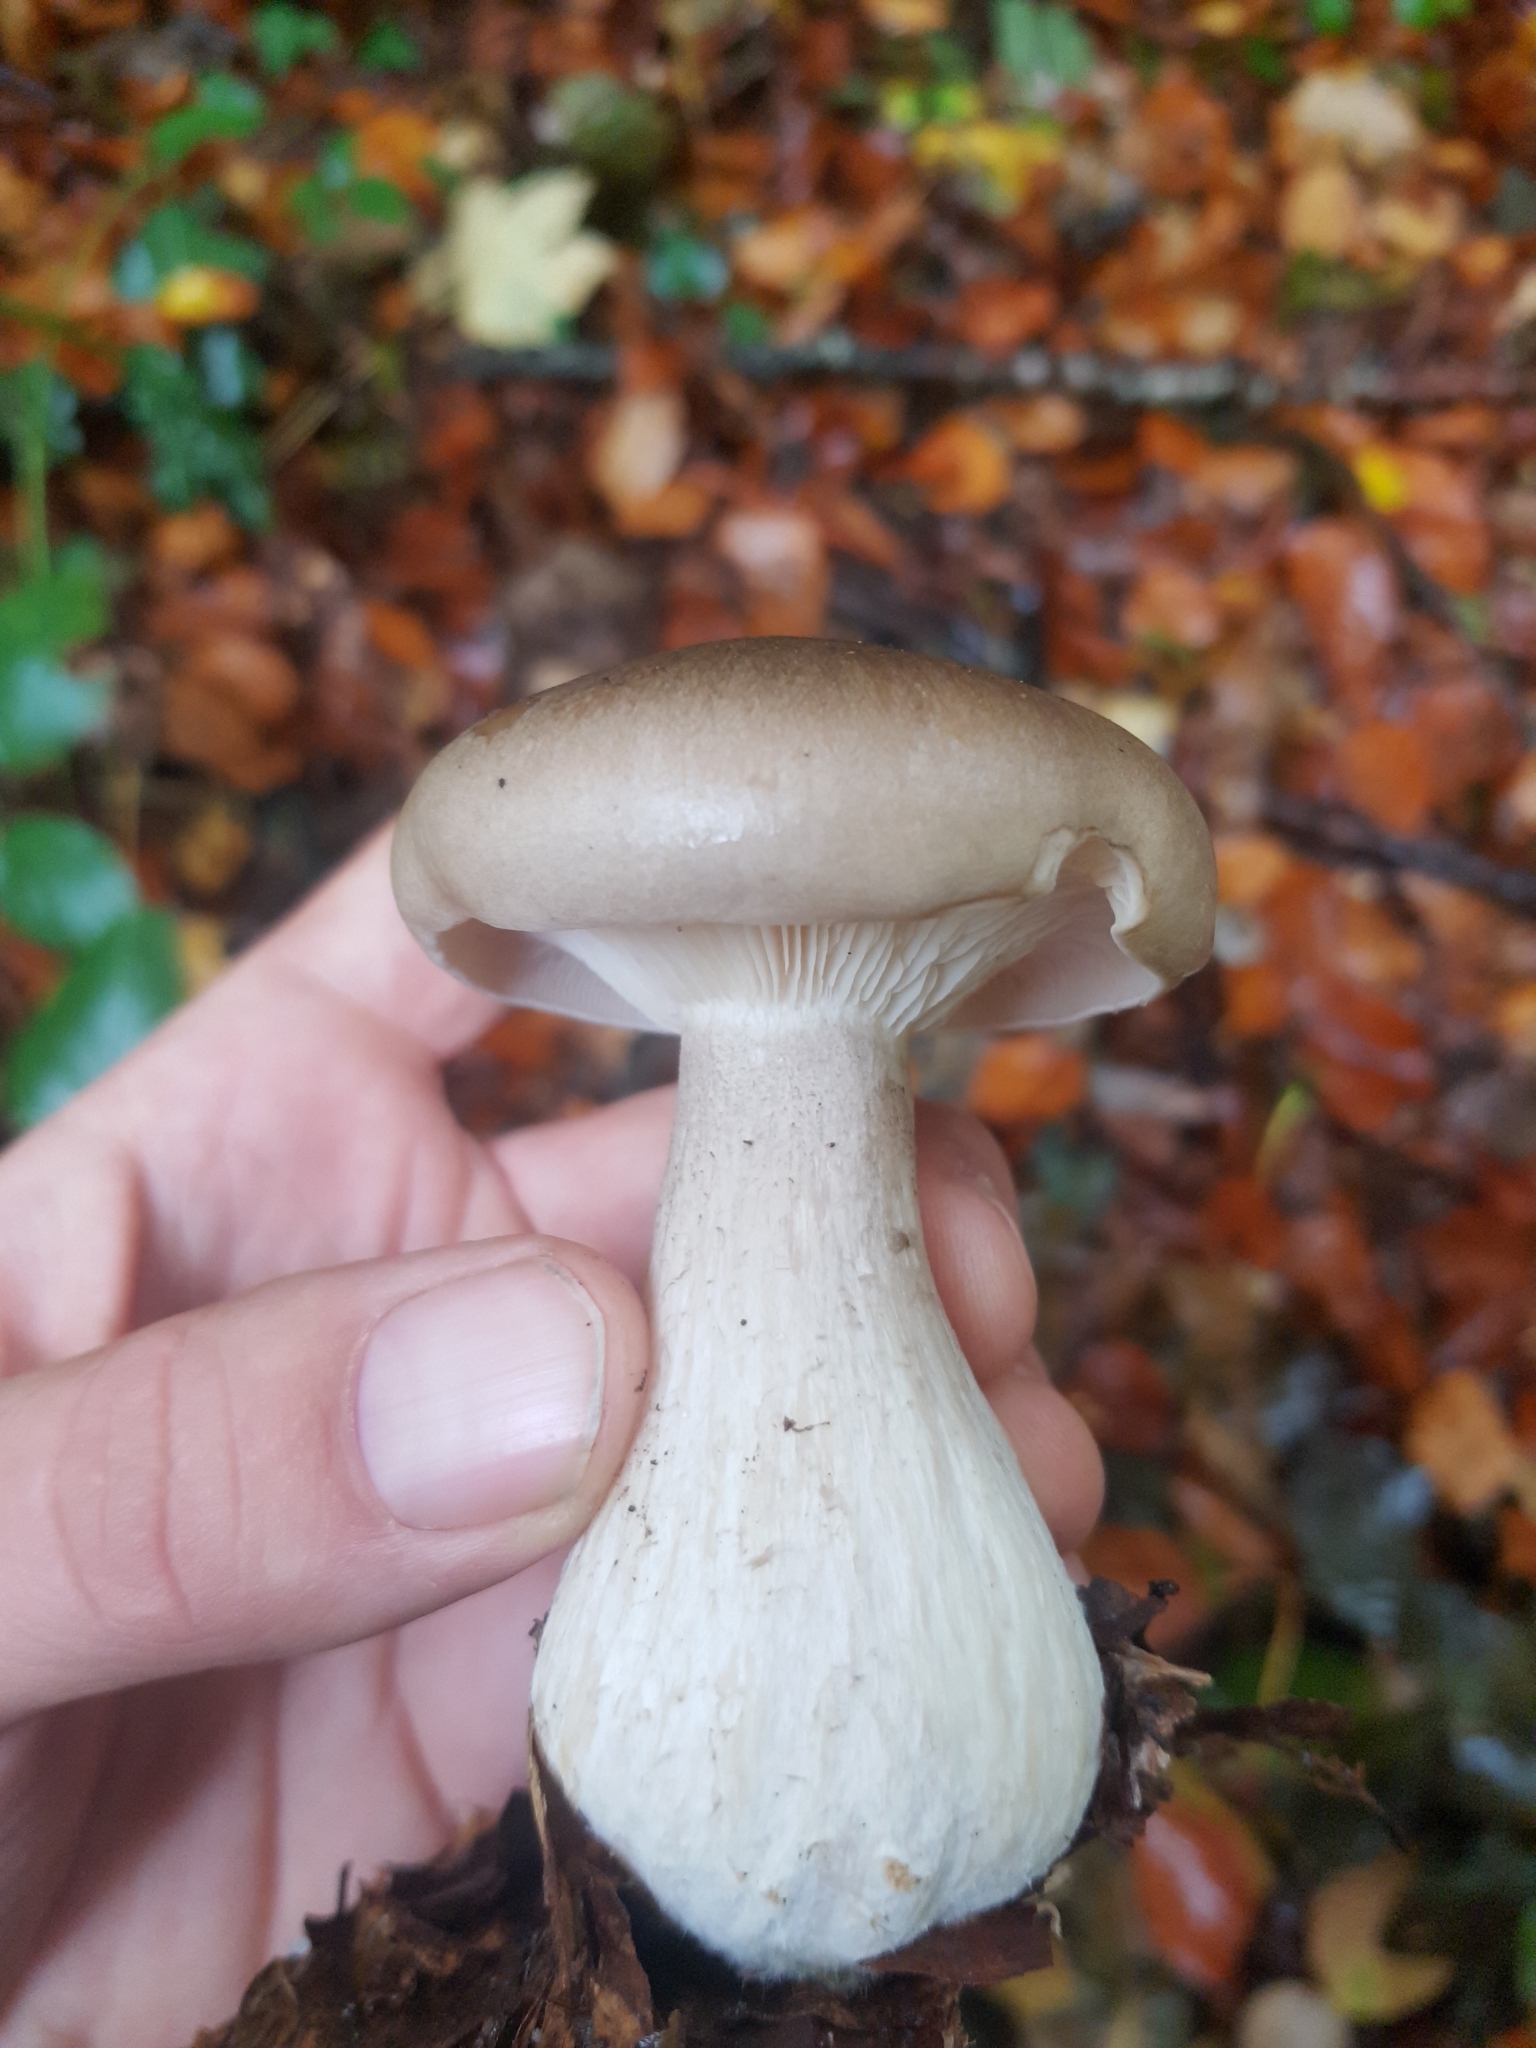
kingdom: Fungi
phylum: Basidiomycota
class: Agaricomycetes
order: Agaricales
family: Tricholomataceae
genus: Clitocybe
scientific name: Clitocybe nebularis
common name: Clouded agaric
